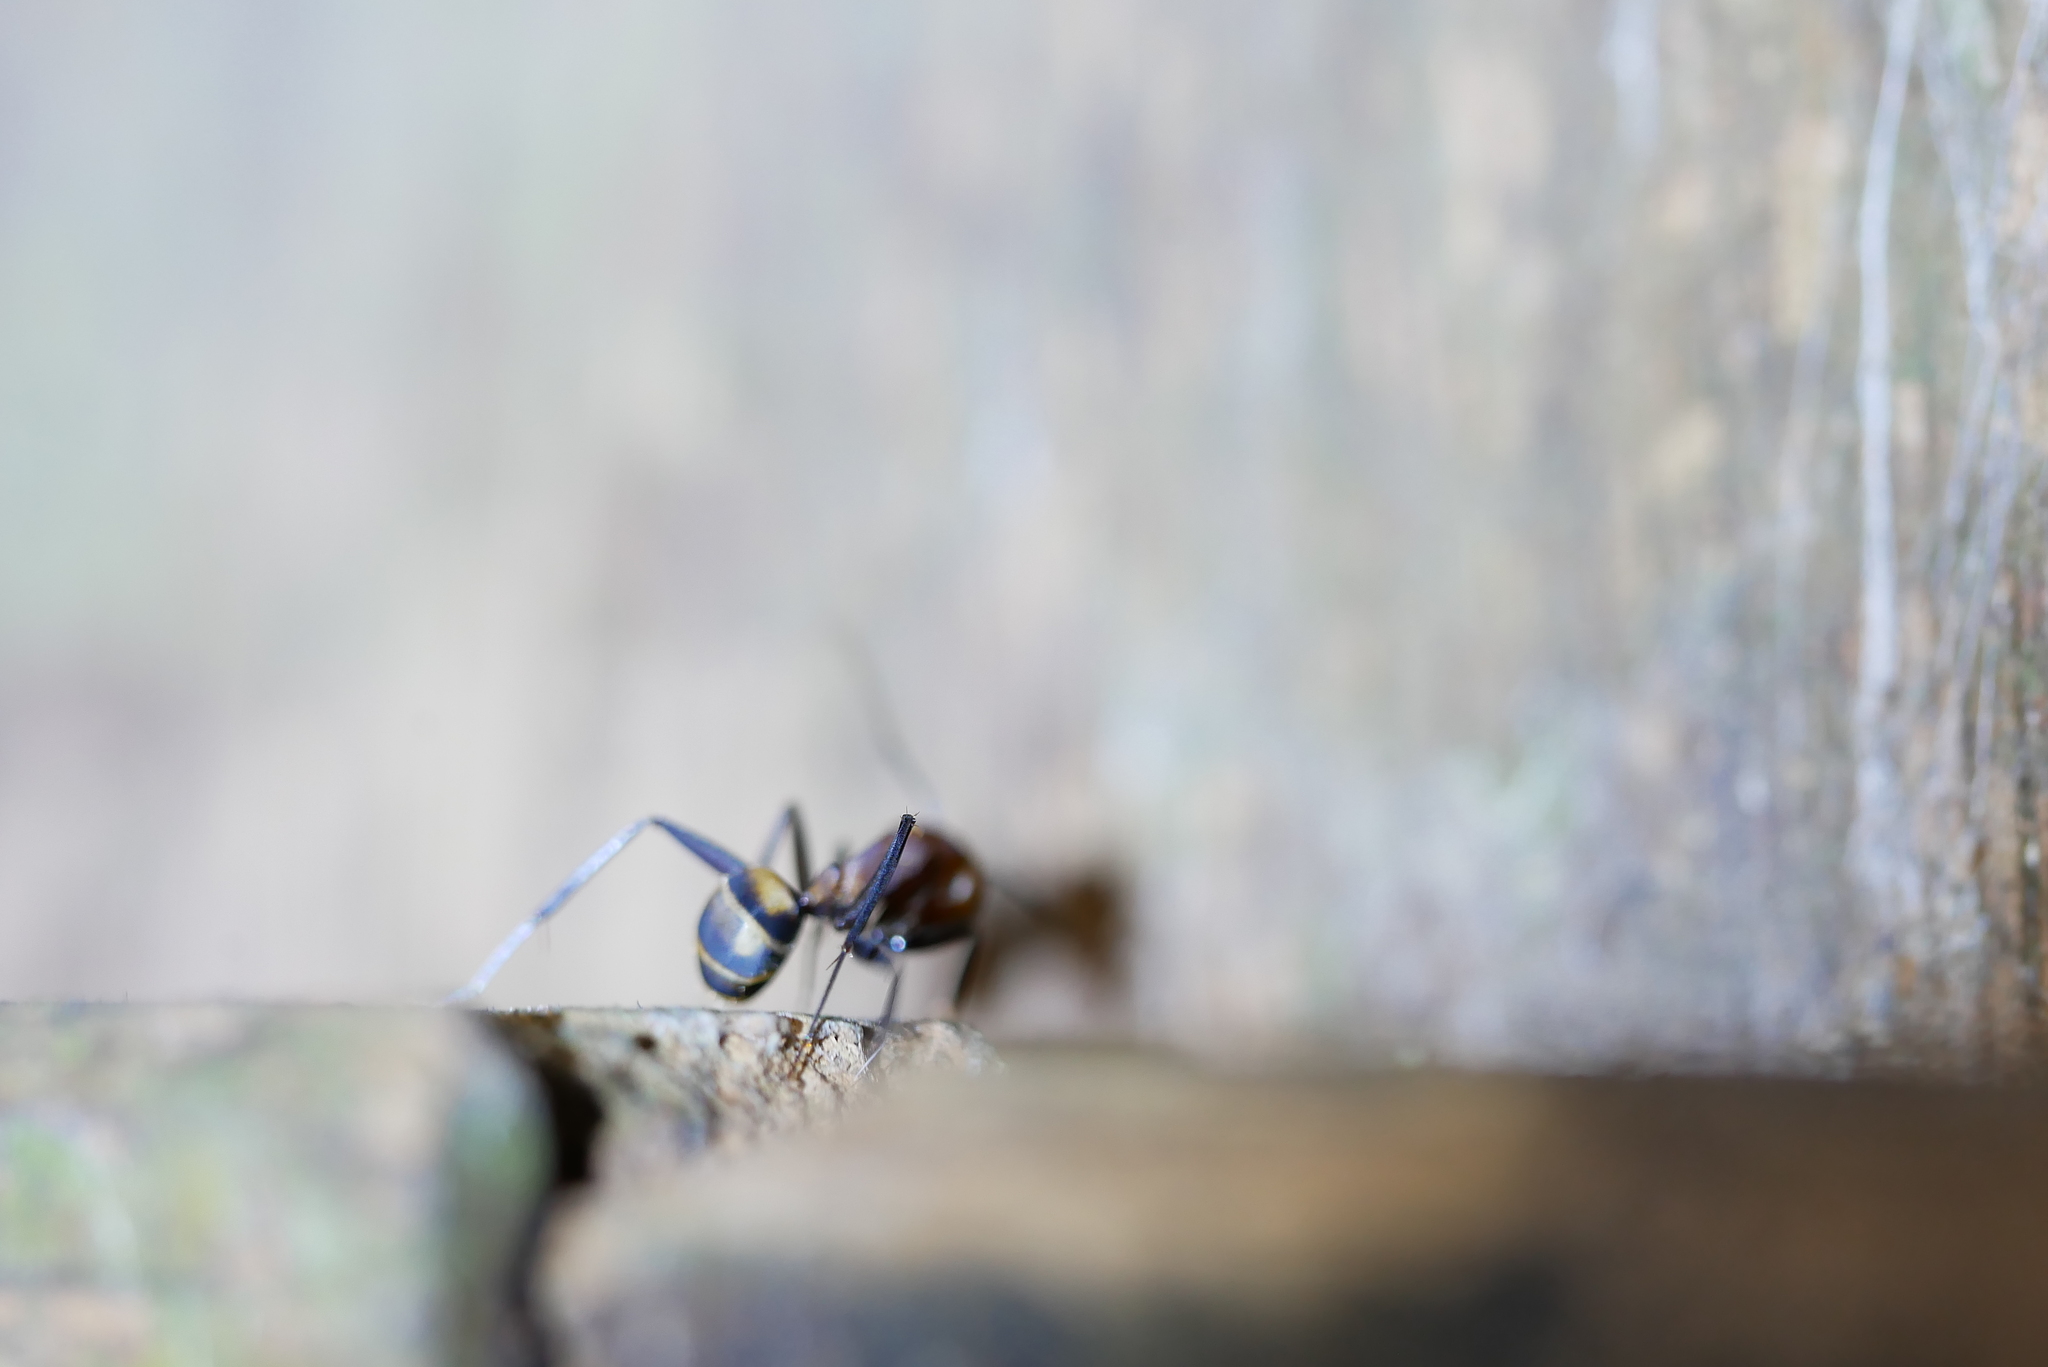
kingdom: Animalia
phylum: Arthropoda
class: Insecta
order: Hymenoptera
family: Formicidae
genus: Camponotus
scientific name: Camponotus habereri
